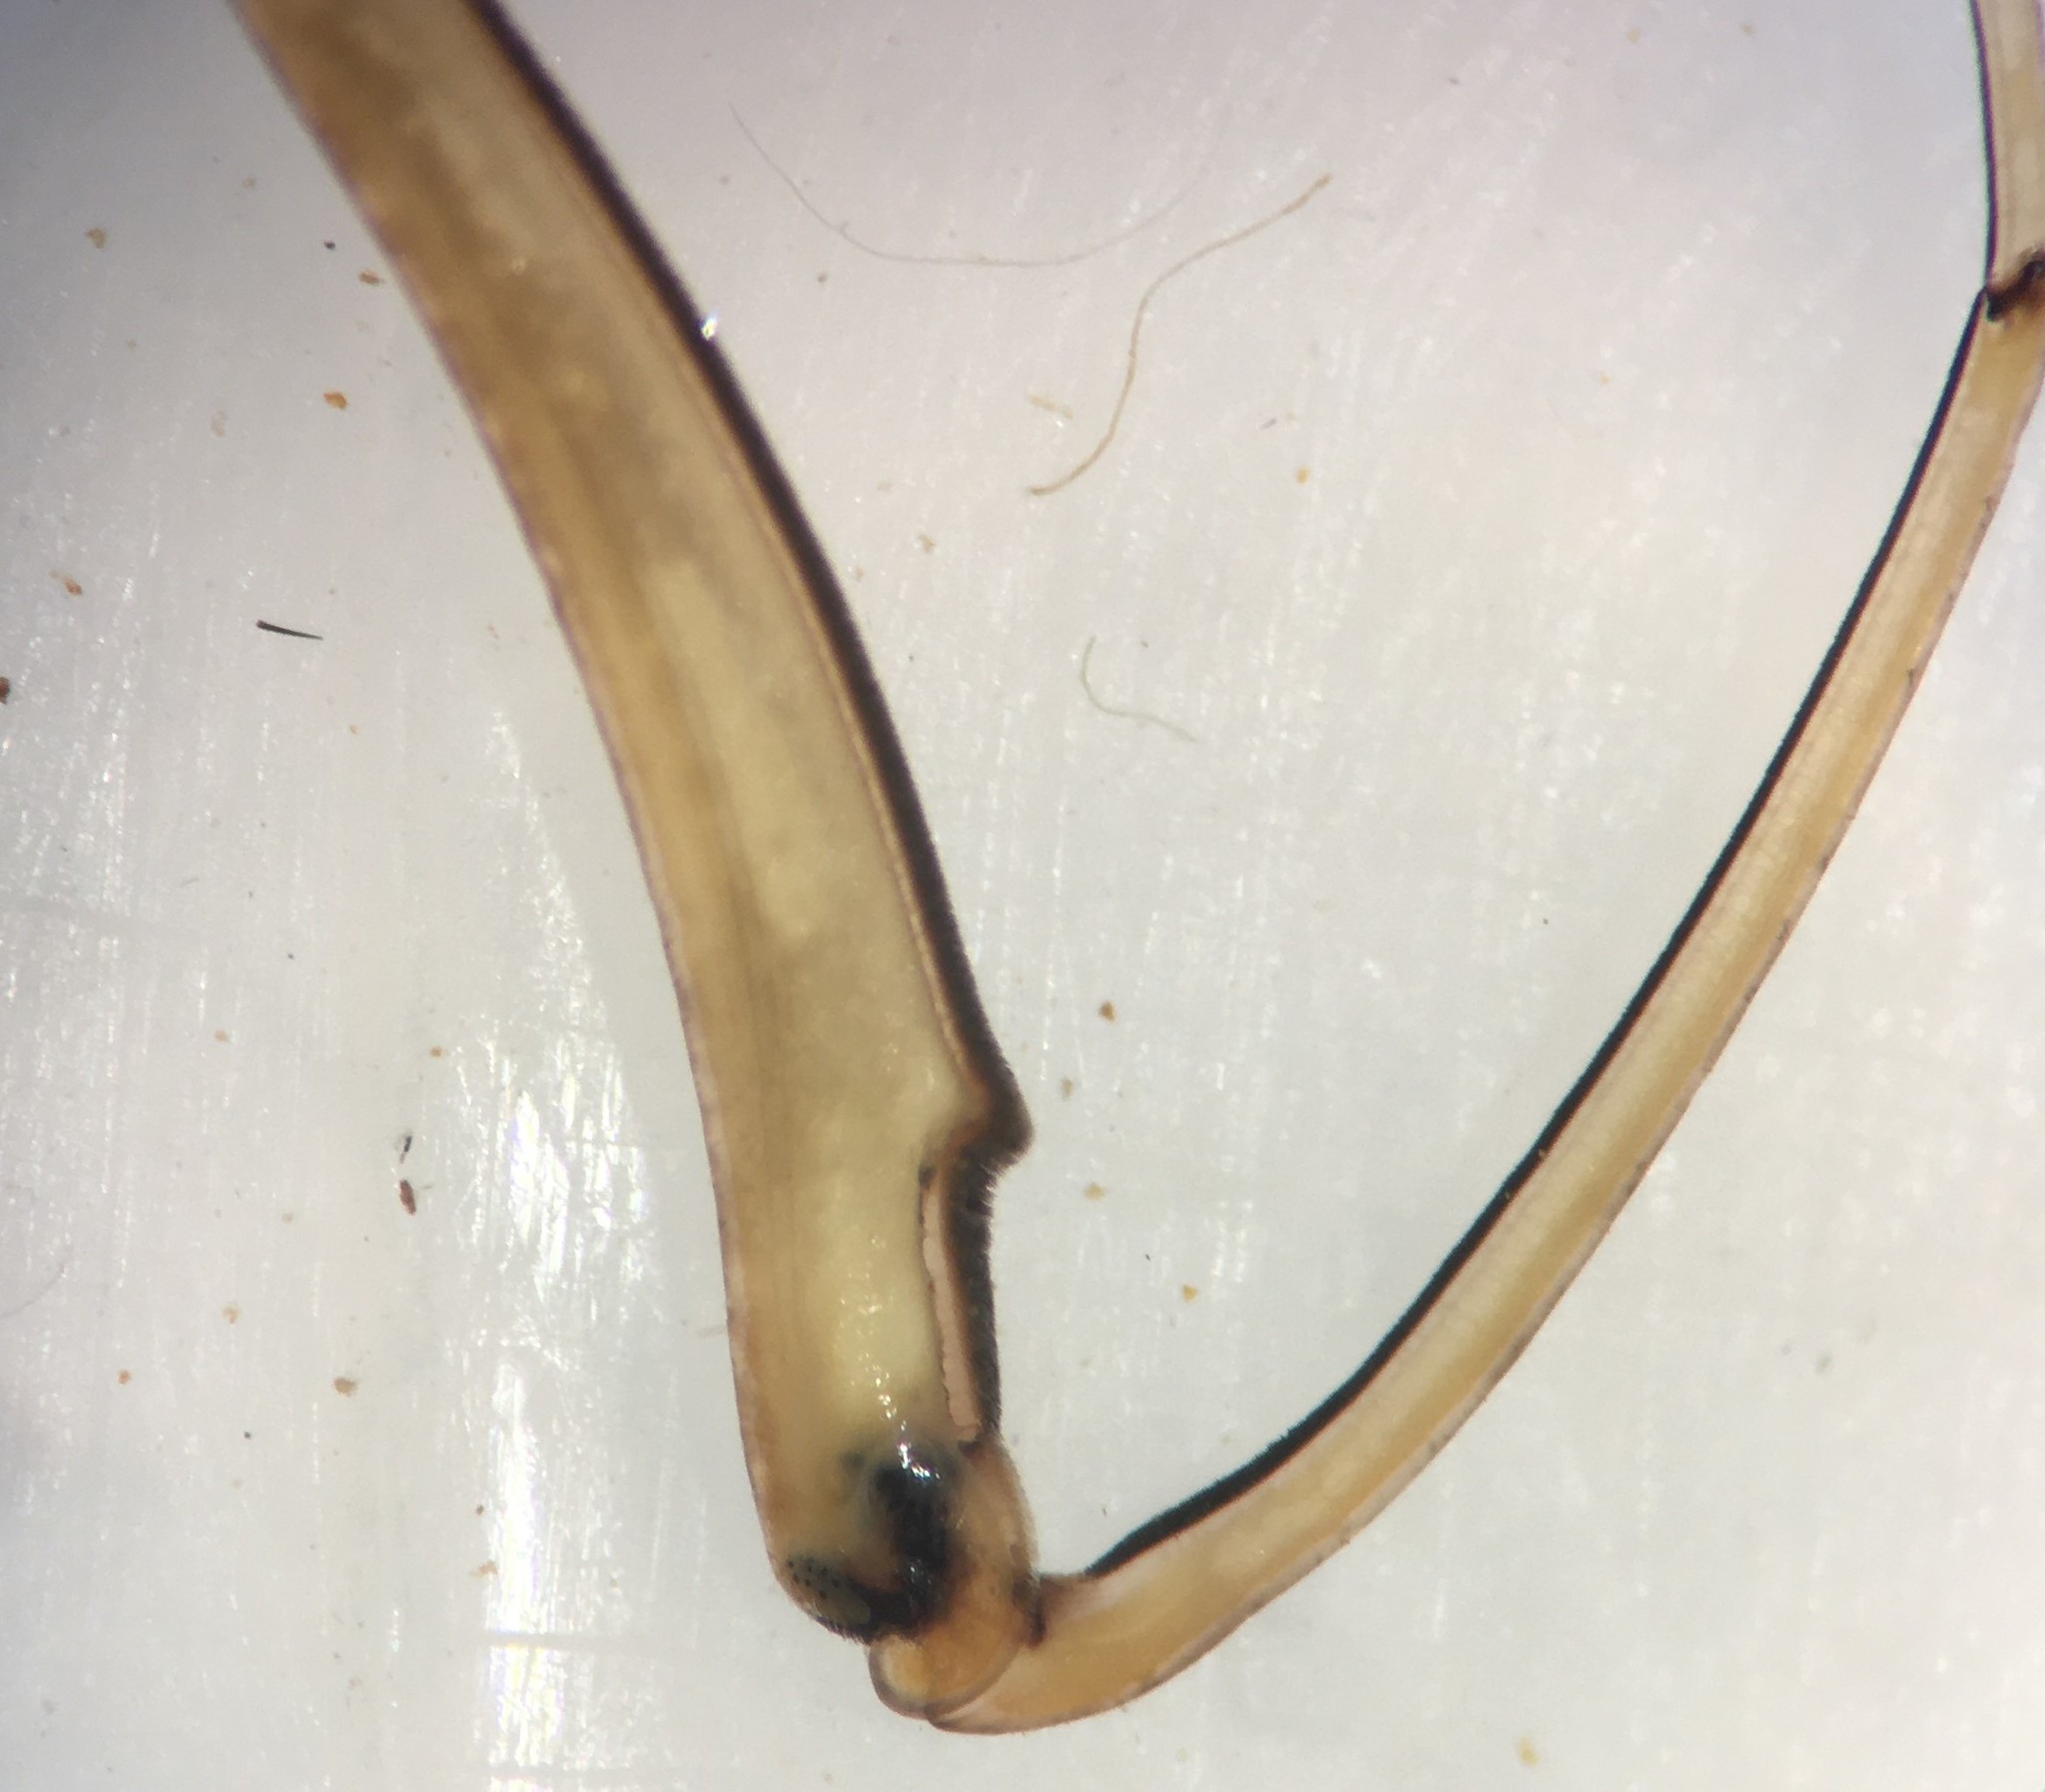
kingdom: Animalia
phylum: Arthropoda
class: Insecta
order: Hemiptera
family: Nepidae
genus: Ranatra
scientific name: Ranatra fusca
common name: Brown waterscorpion
